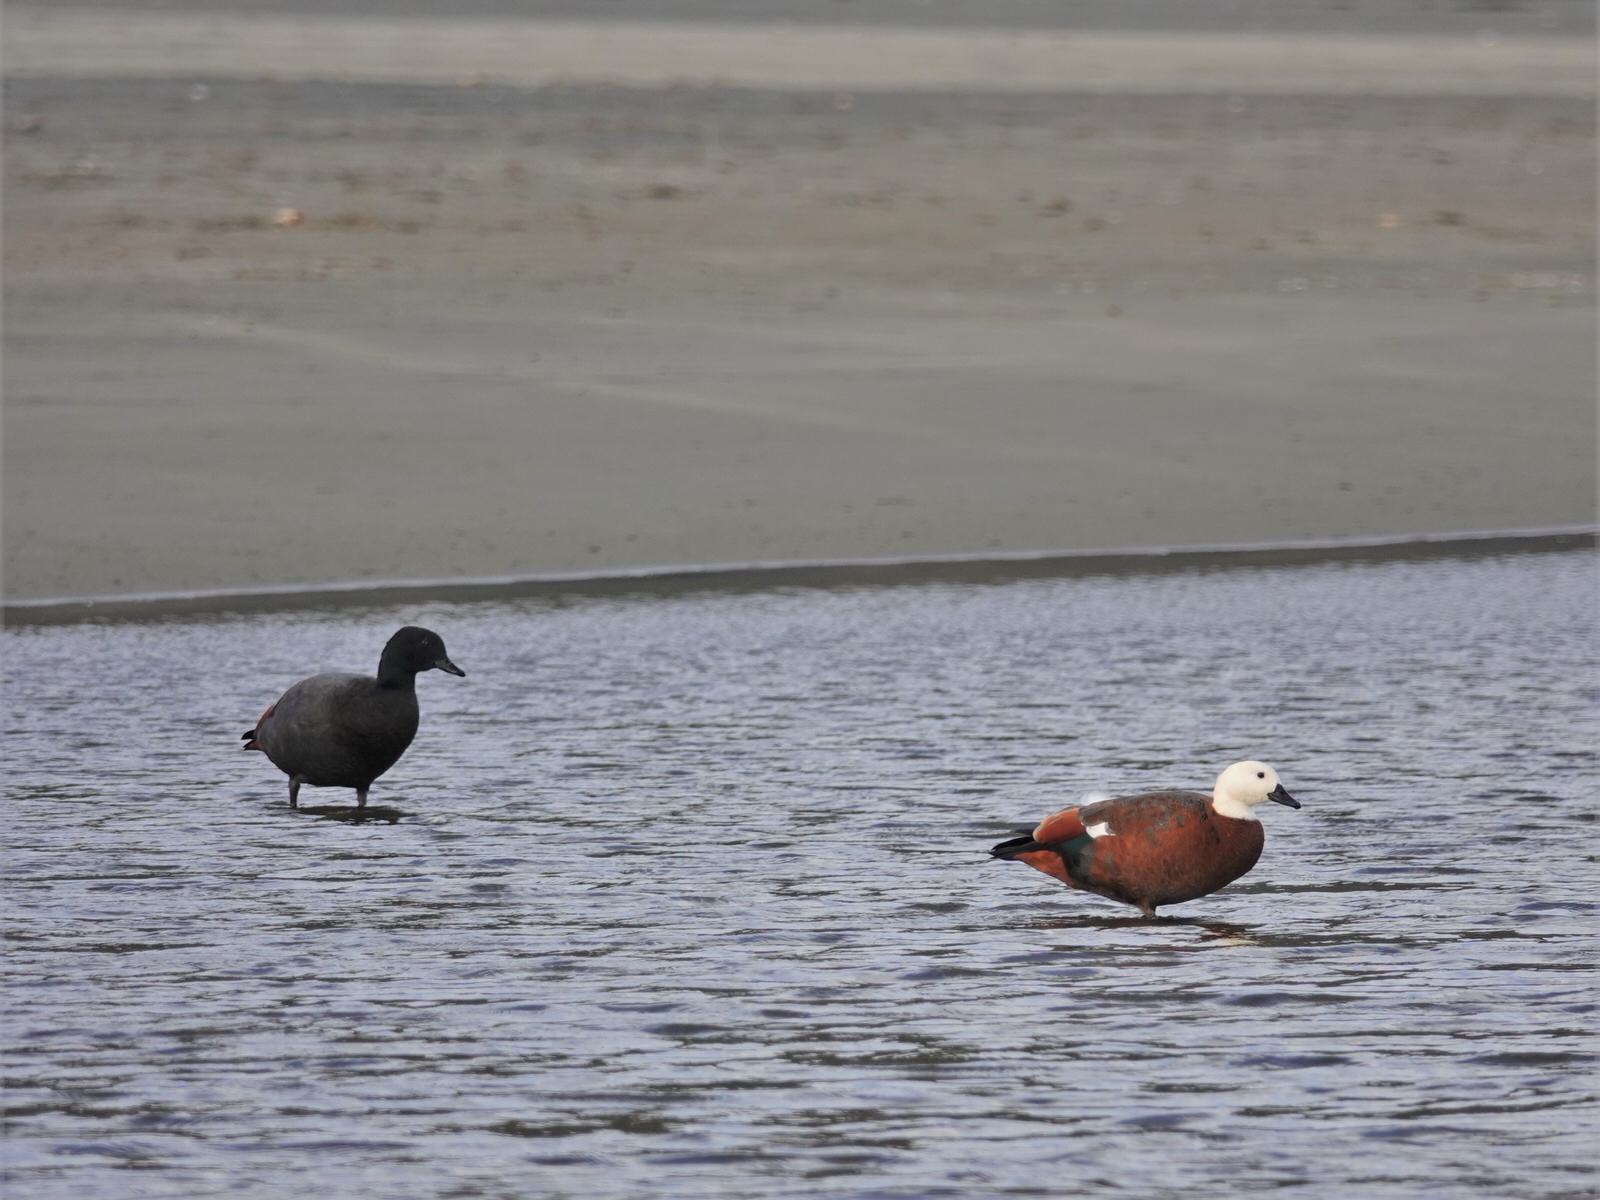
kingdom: Animalia
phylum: Chordata
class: Aves
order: Anseriformes
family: Anatidae
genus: Tadorna
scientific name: Tadorna variegata
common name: Paradise shelduck
